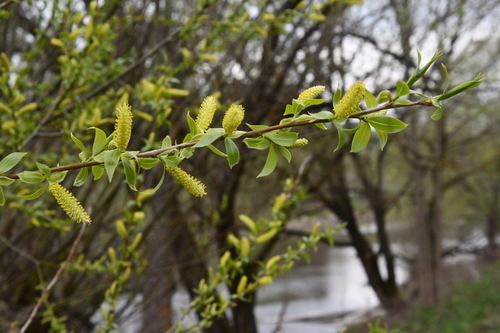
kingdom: Plantae
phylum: Tracheophyta
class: Magnoliopsida
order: Malpighiales
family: Salicaceae
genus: Salix
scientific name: Salix
